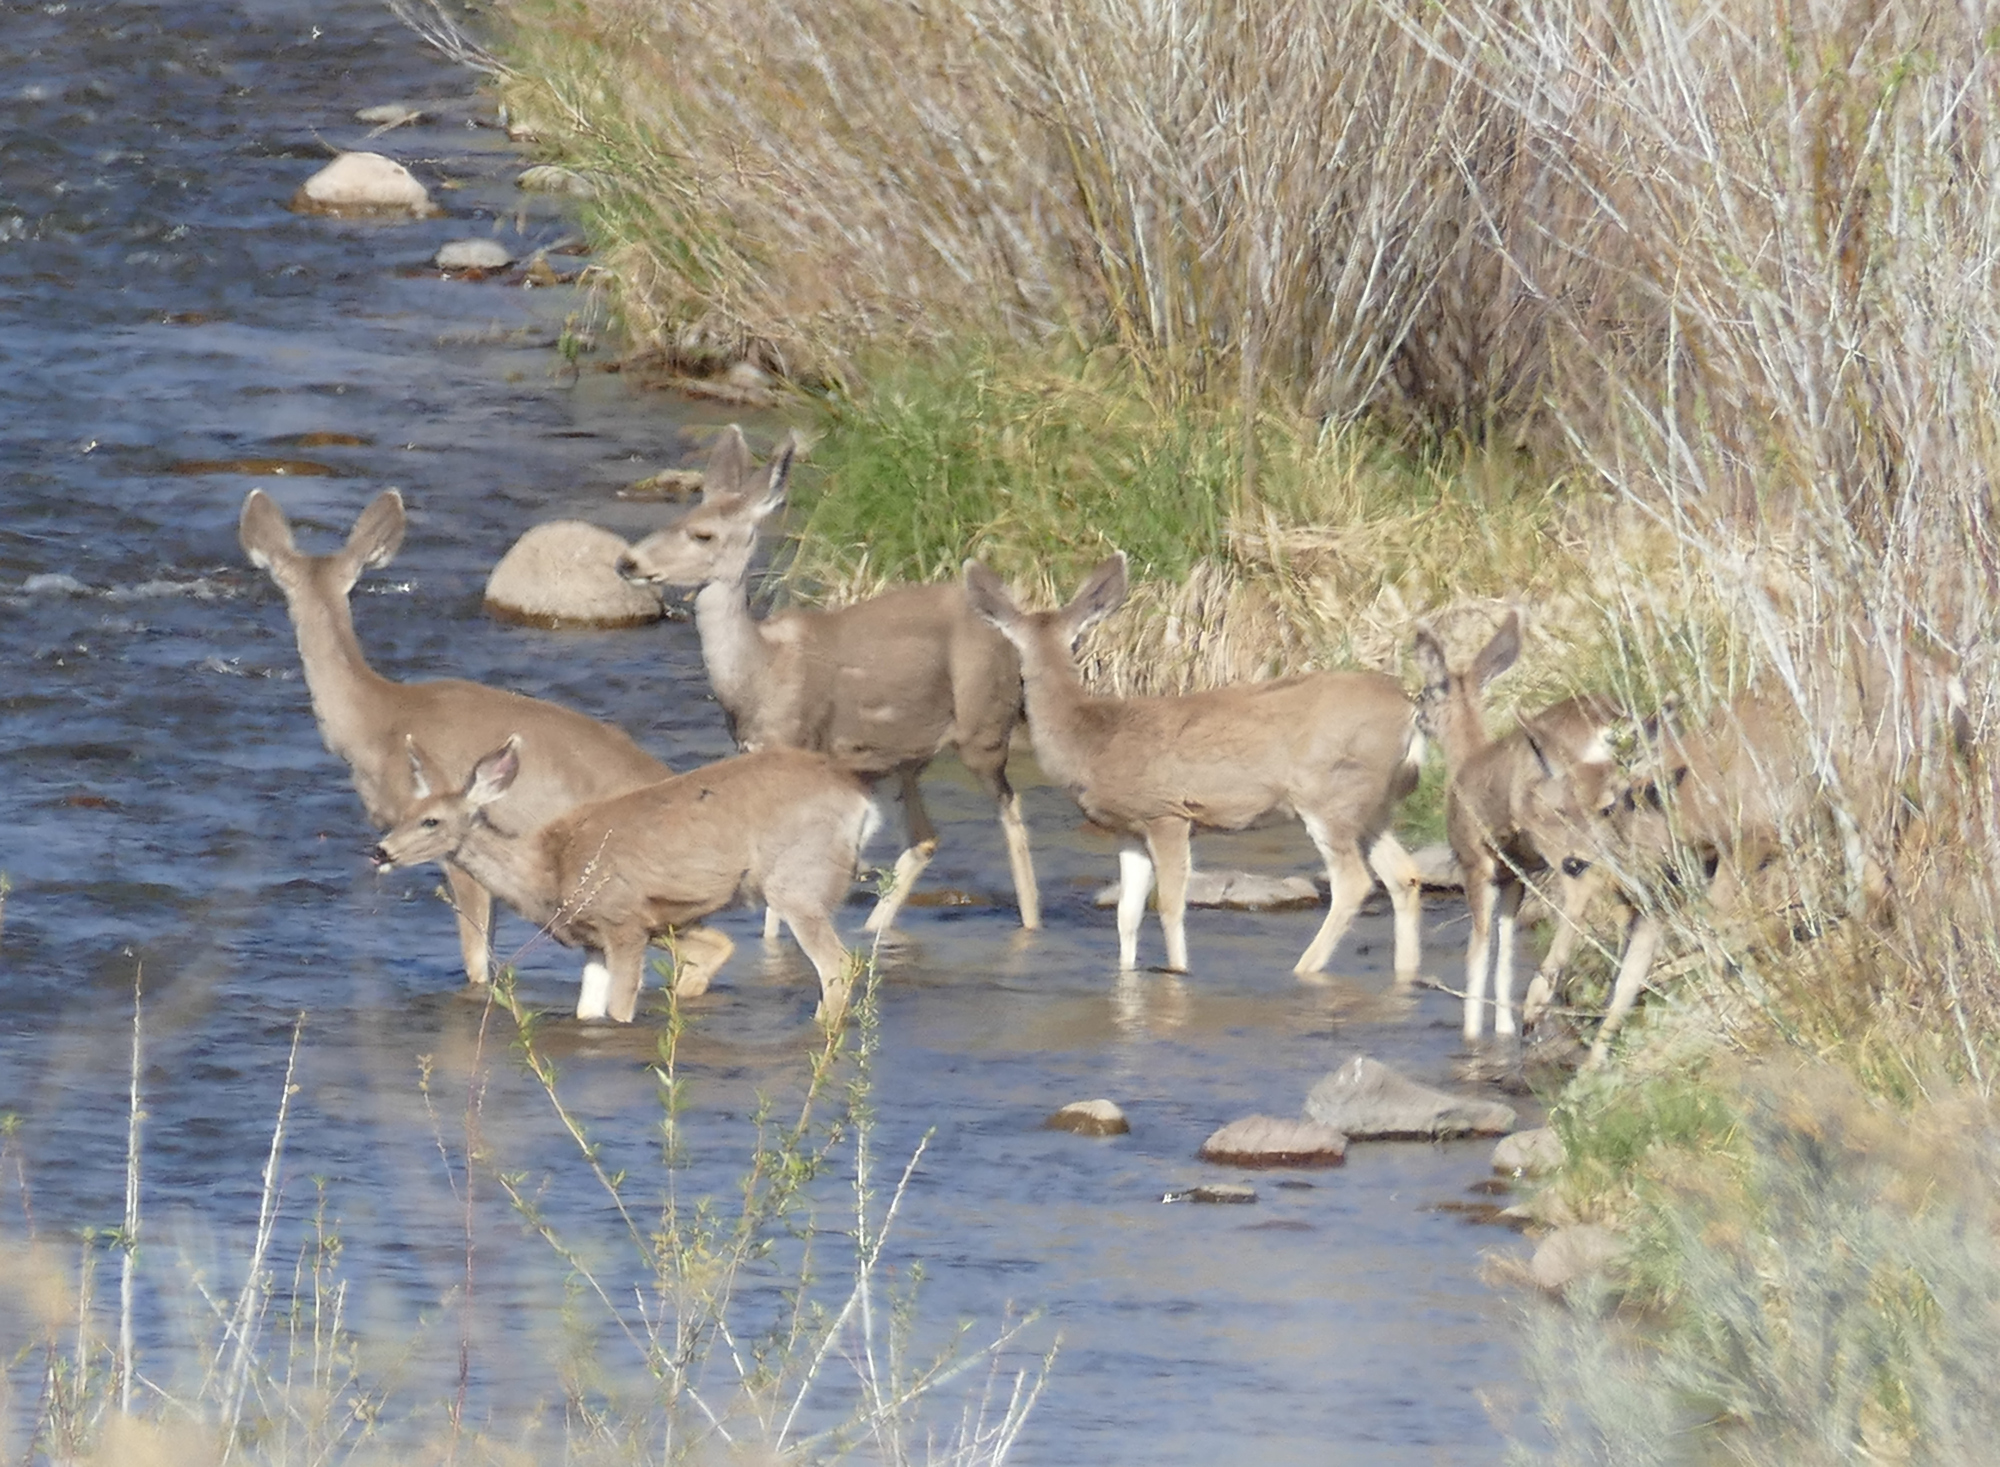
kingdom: Animalia
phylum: Chordata
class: Mammalia
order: Artiodactyla
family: Cervidae
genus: Odocoileus
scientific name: Odocoileus hemionus
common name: Mule deer
